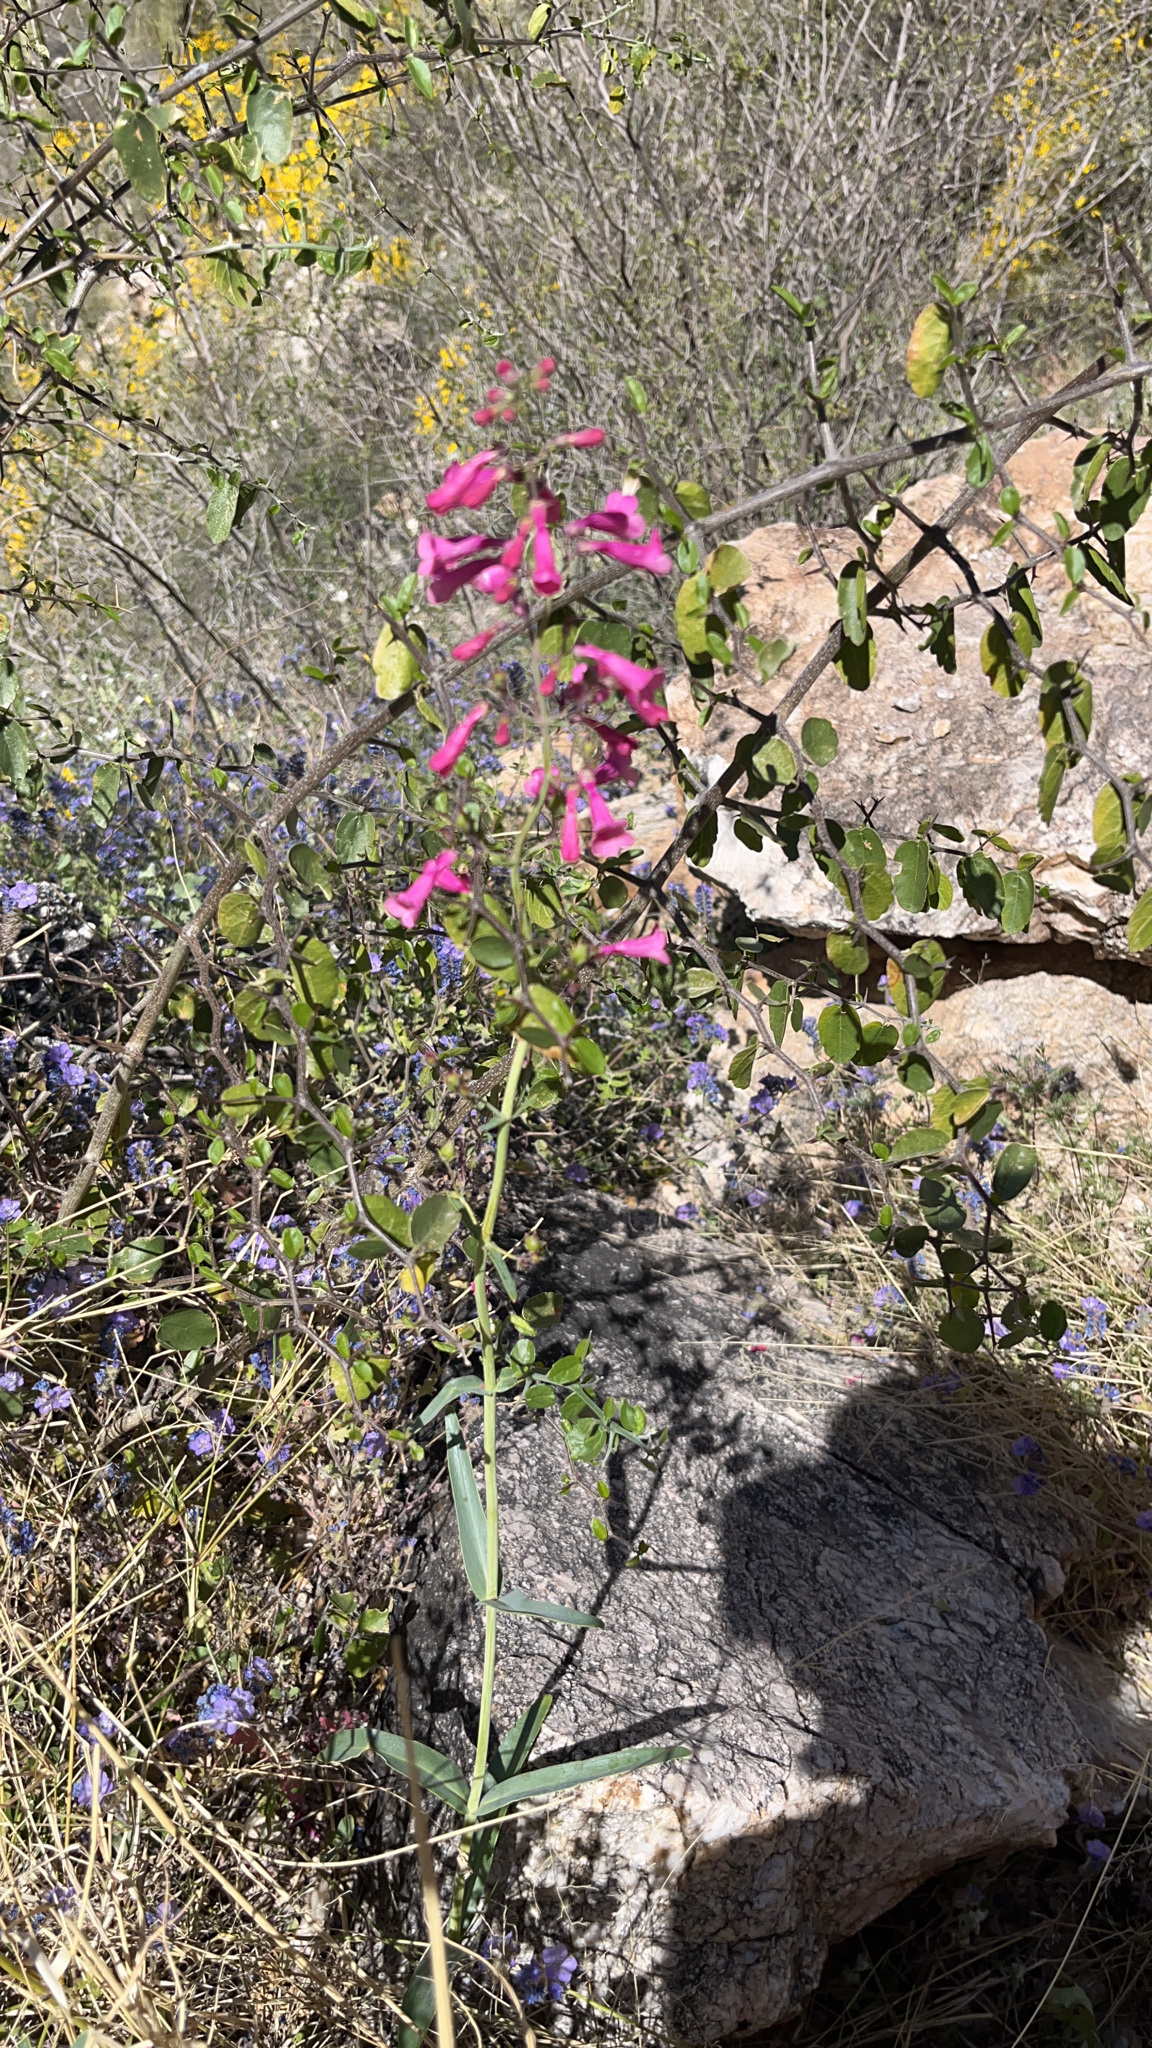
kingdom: Plantae
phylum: Tracheophyta
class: Magnoliopsida
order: Lamiales
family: Plantaginaceae
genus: Penstemon
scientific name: Penstemon parryi
